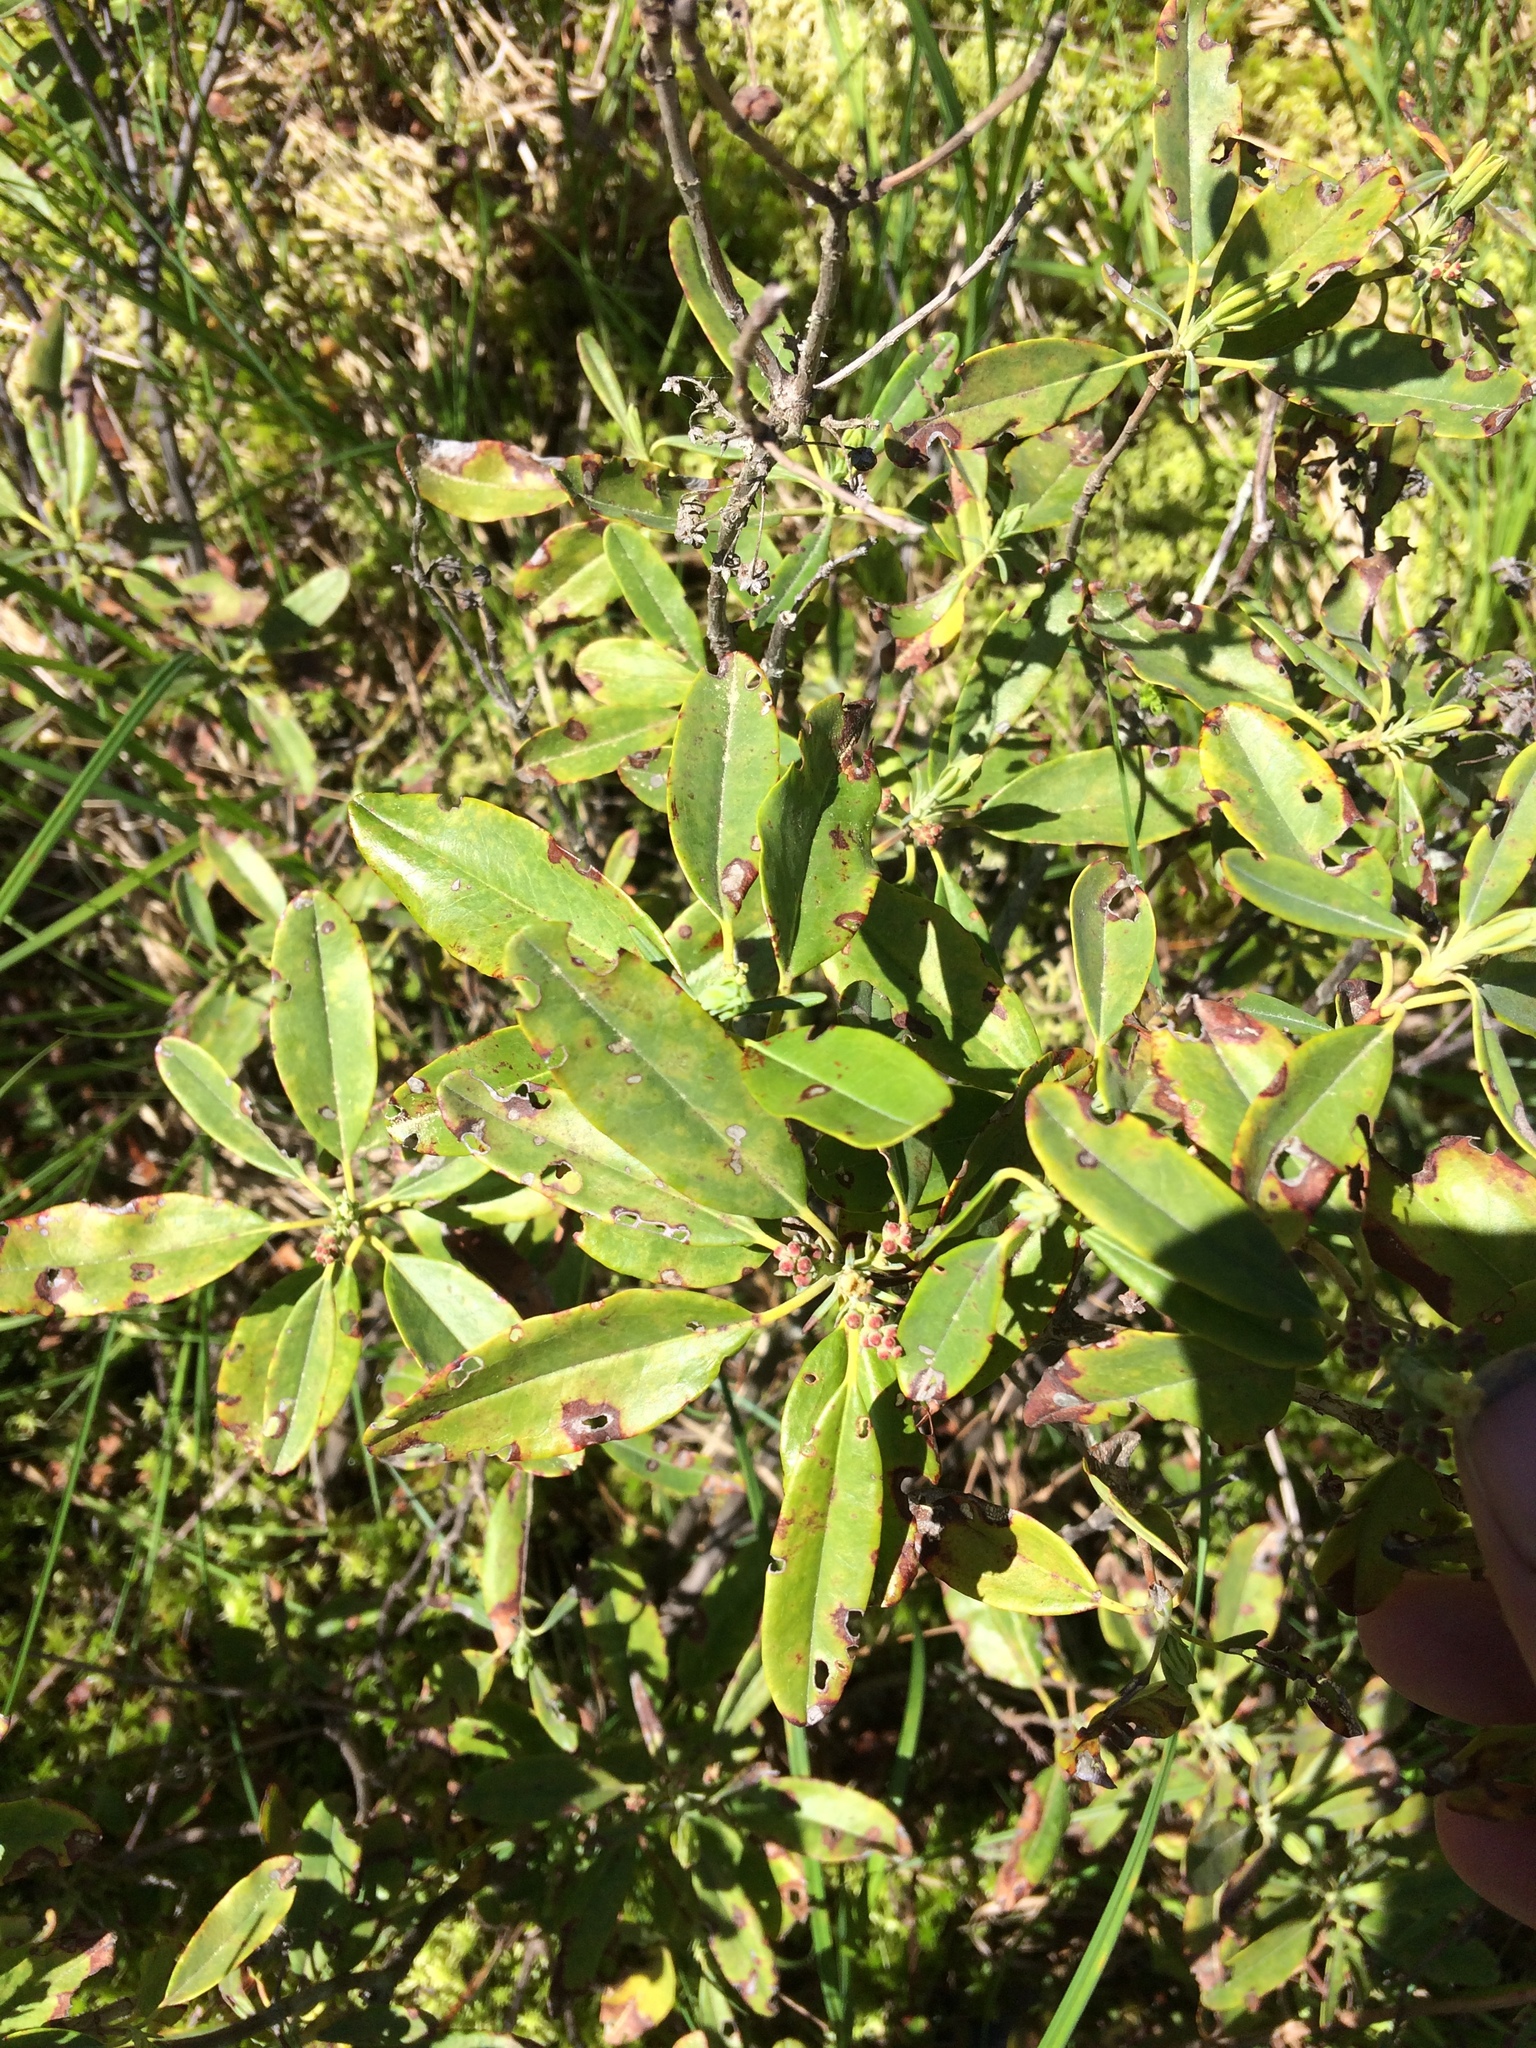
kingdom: Plantae
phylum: Tracheophyta
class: Magnoliopsida
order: Ericales
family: Ericaceae
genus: Kalmia
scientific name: Kalmia angustifolia
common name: Sheep-laurel
